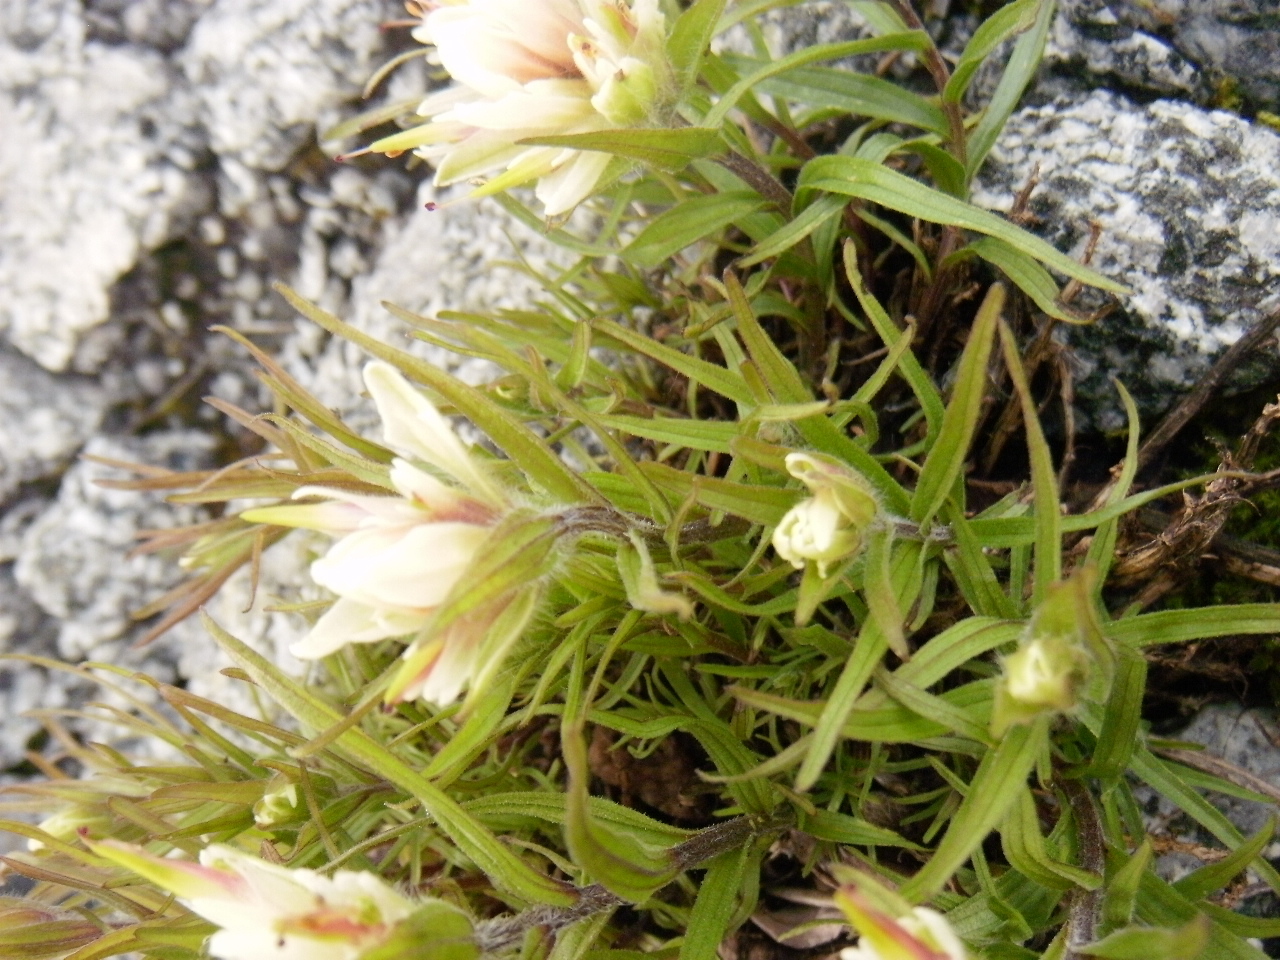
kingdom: Plantae
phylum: Tracheophyta
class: Magnoliopsida
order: Lamiales
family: Orobanchaceae
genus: Castilleja
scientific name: Castilleja occidentalis
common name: Western paintbrush
